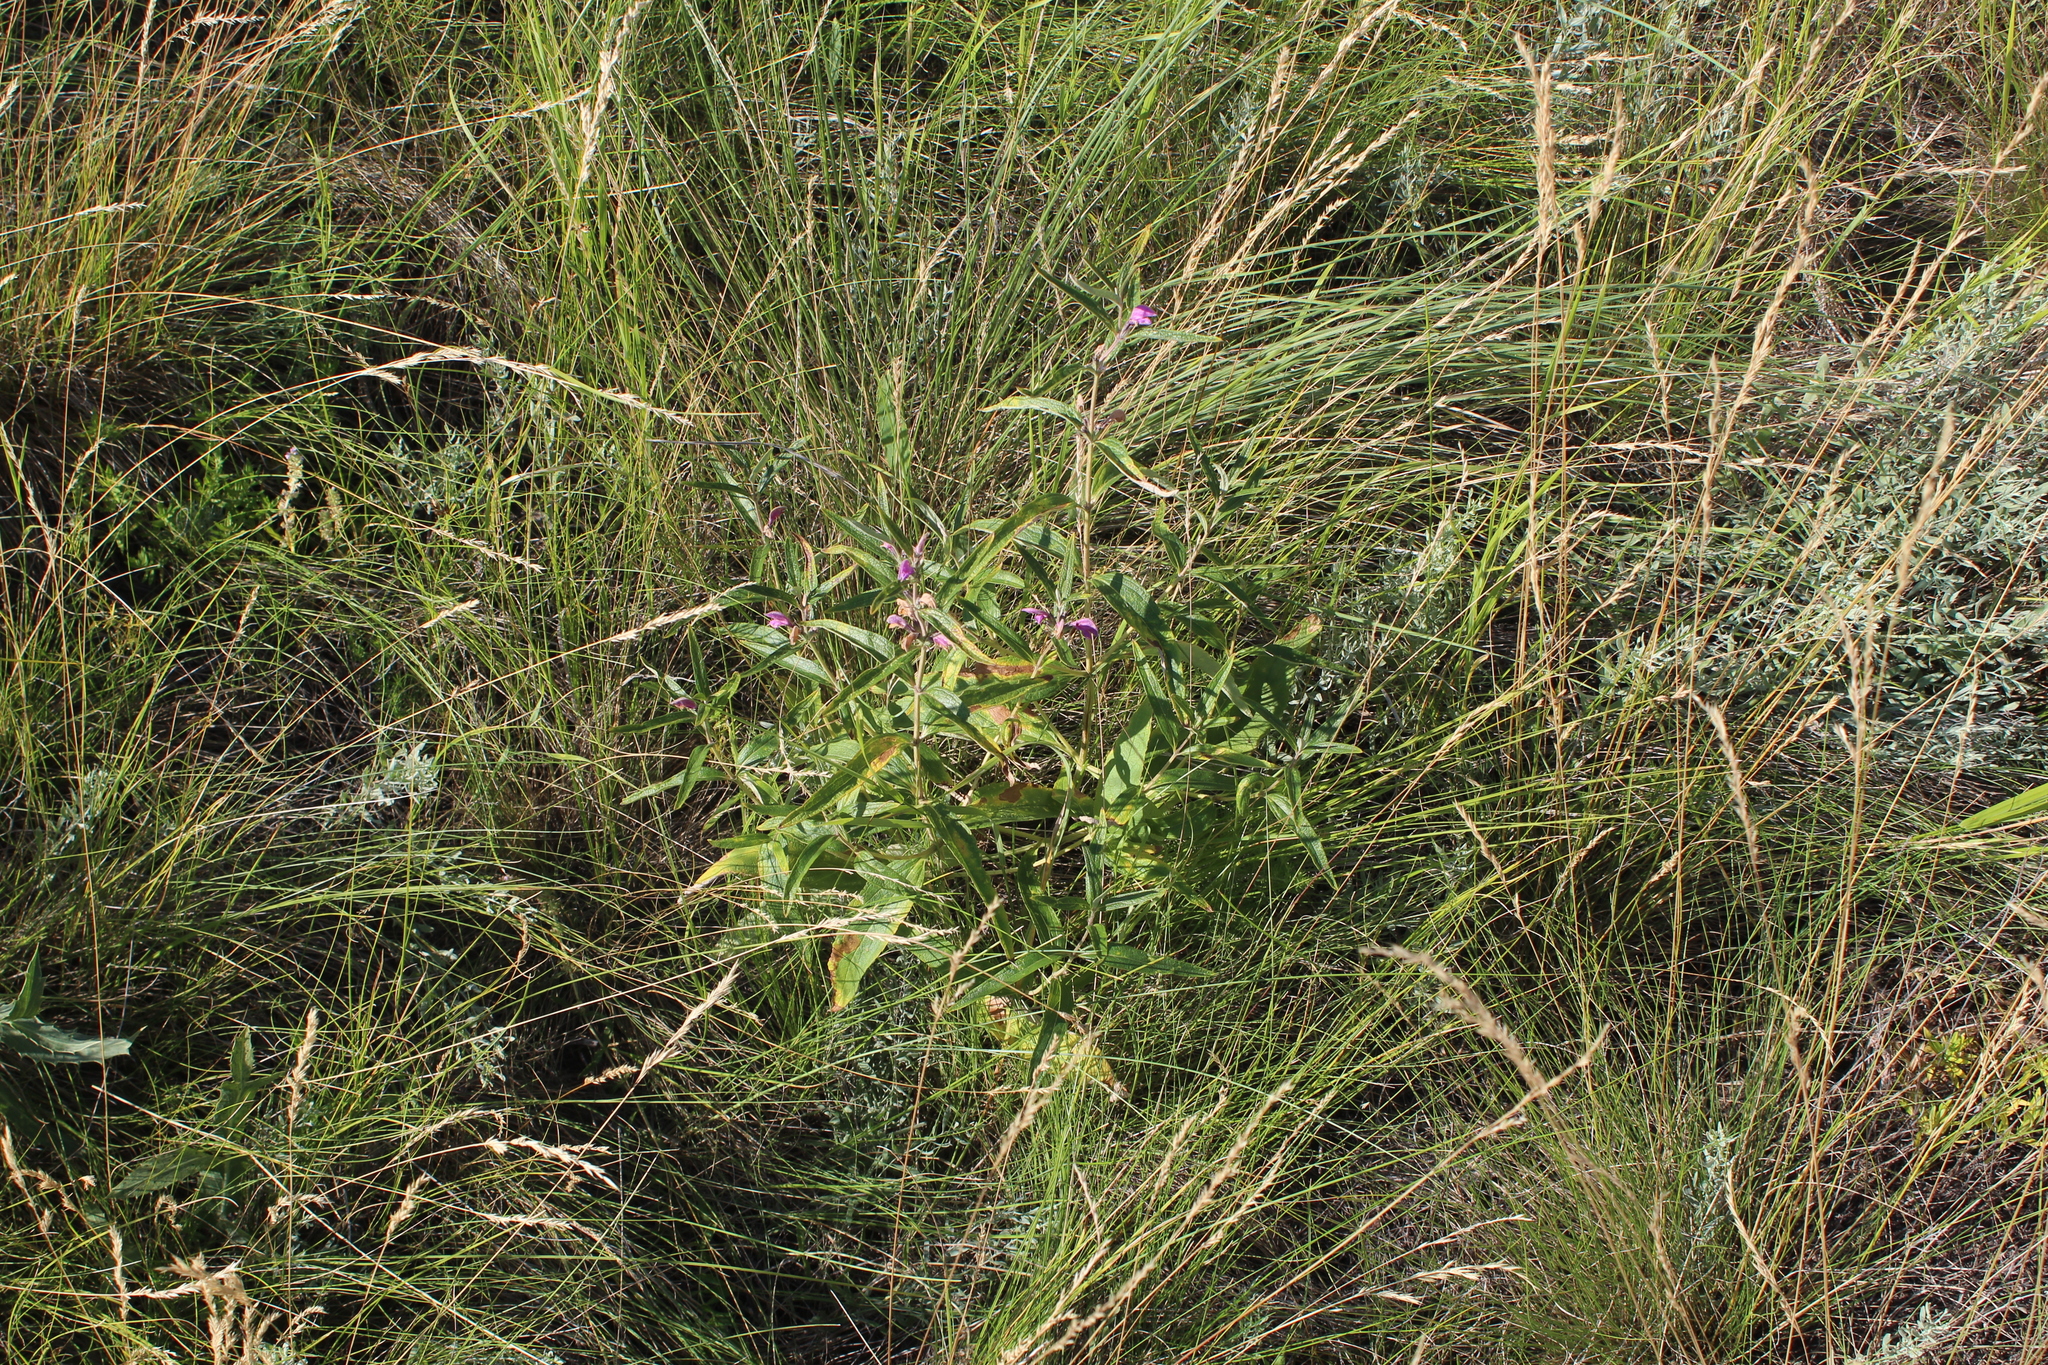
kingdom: Plantae
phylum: Tracheophyta
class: Magnoliopsida
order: Lamiales
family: Lamiaceae
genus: Phlomis
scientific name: Phlomis herba-venti
